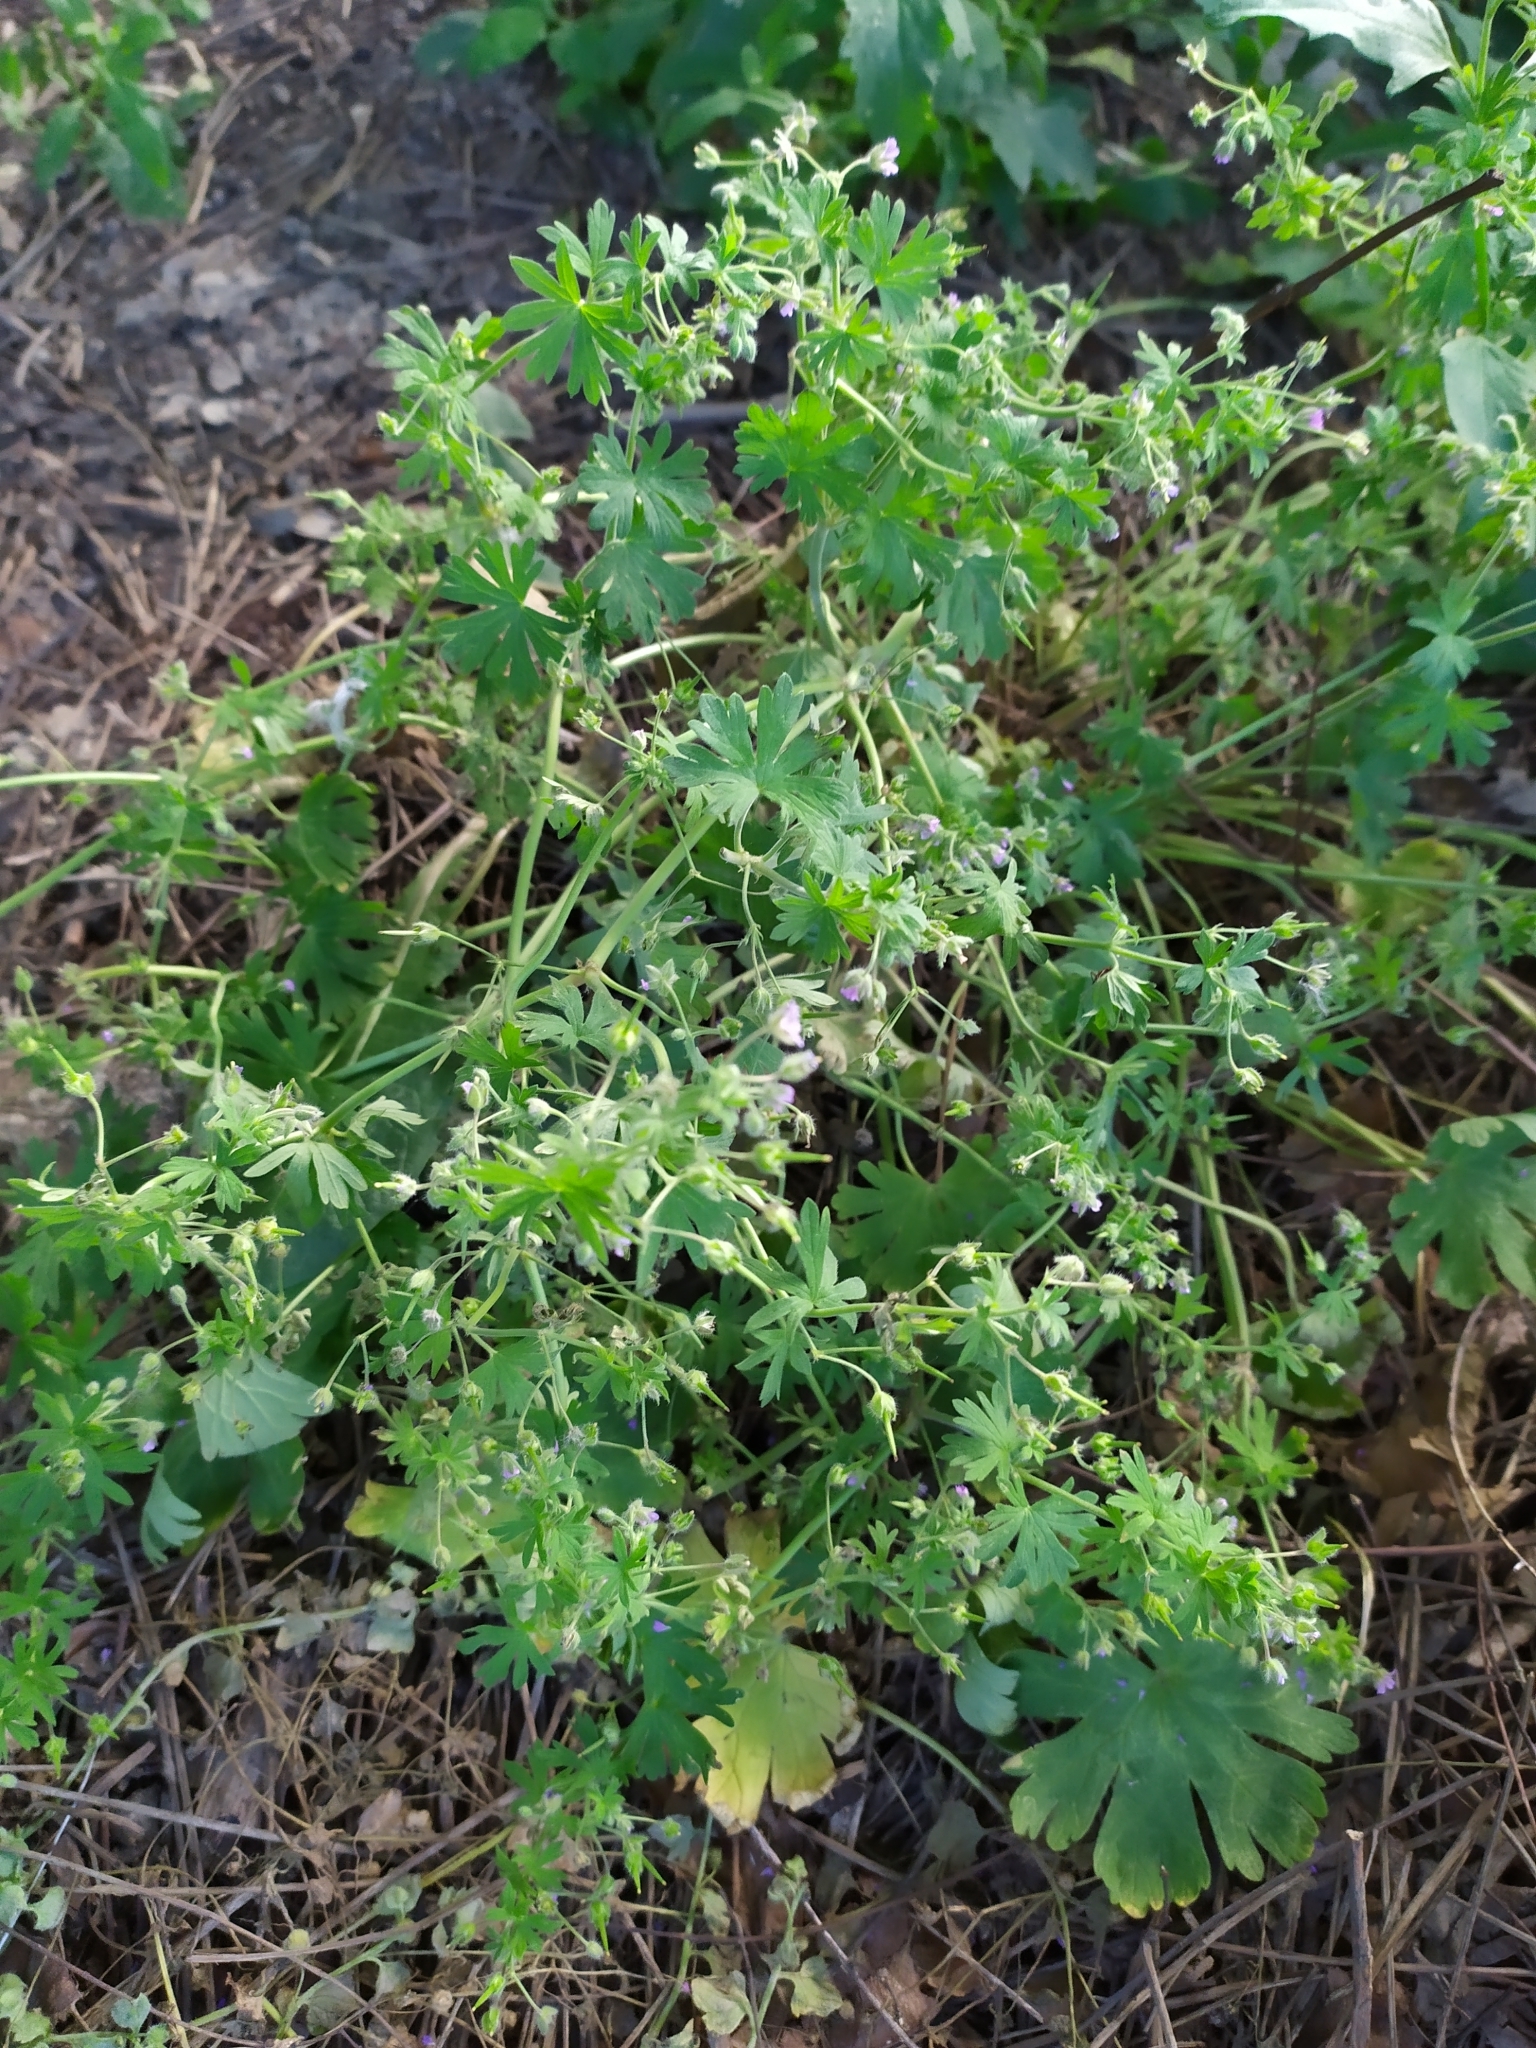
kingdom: Plantae
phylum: Tracheophyta
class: Magnoliopsida
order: Geraniales
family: Geraniaceae
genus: Geranium
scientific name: Geranium pusillum
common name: Small geranium
